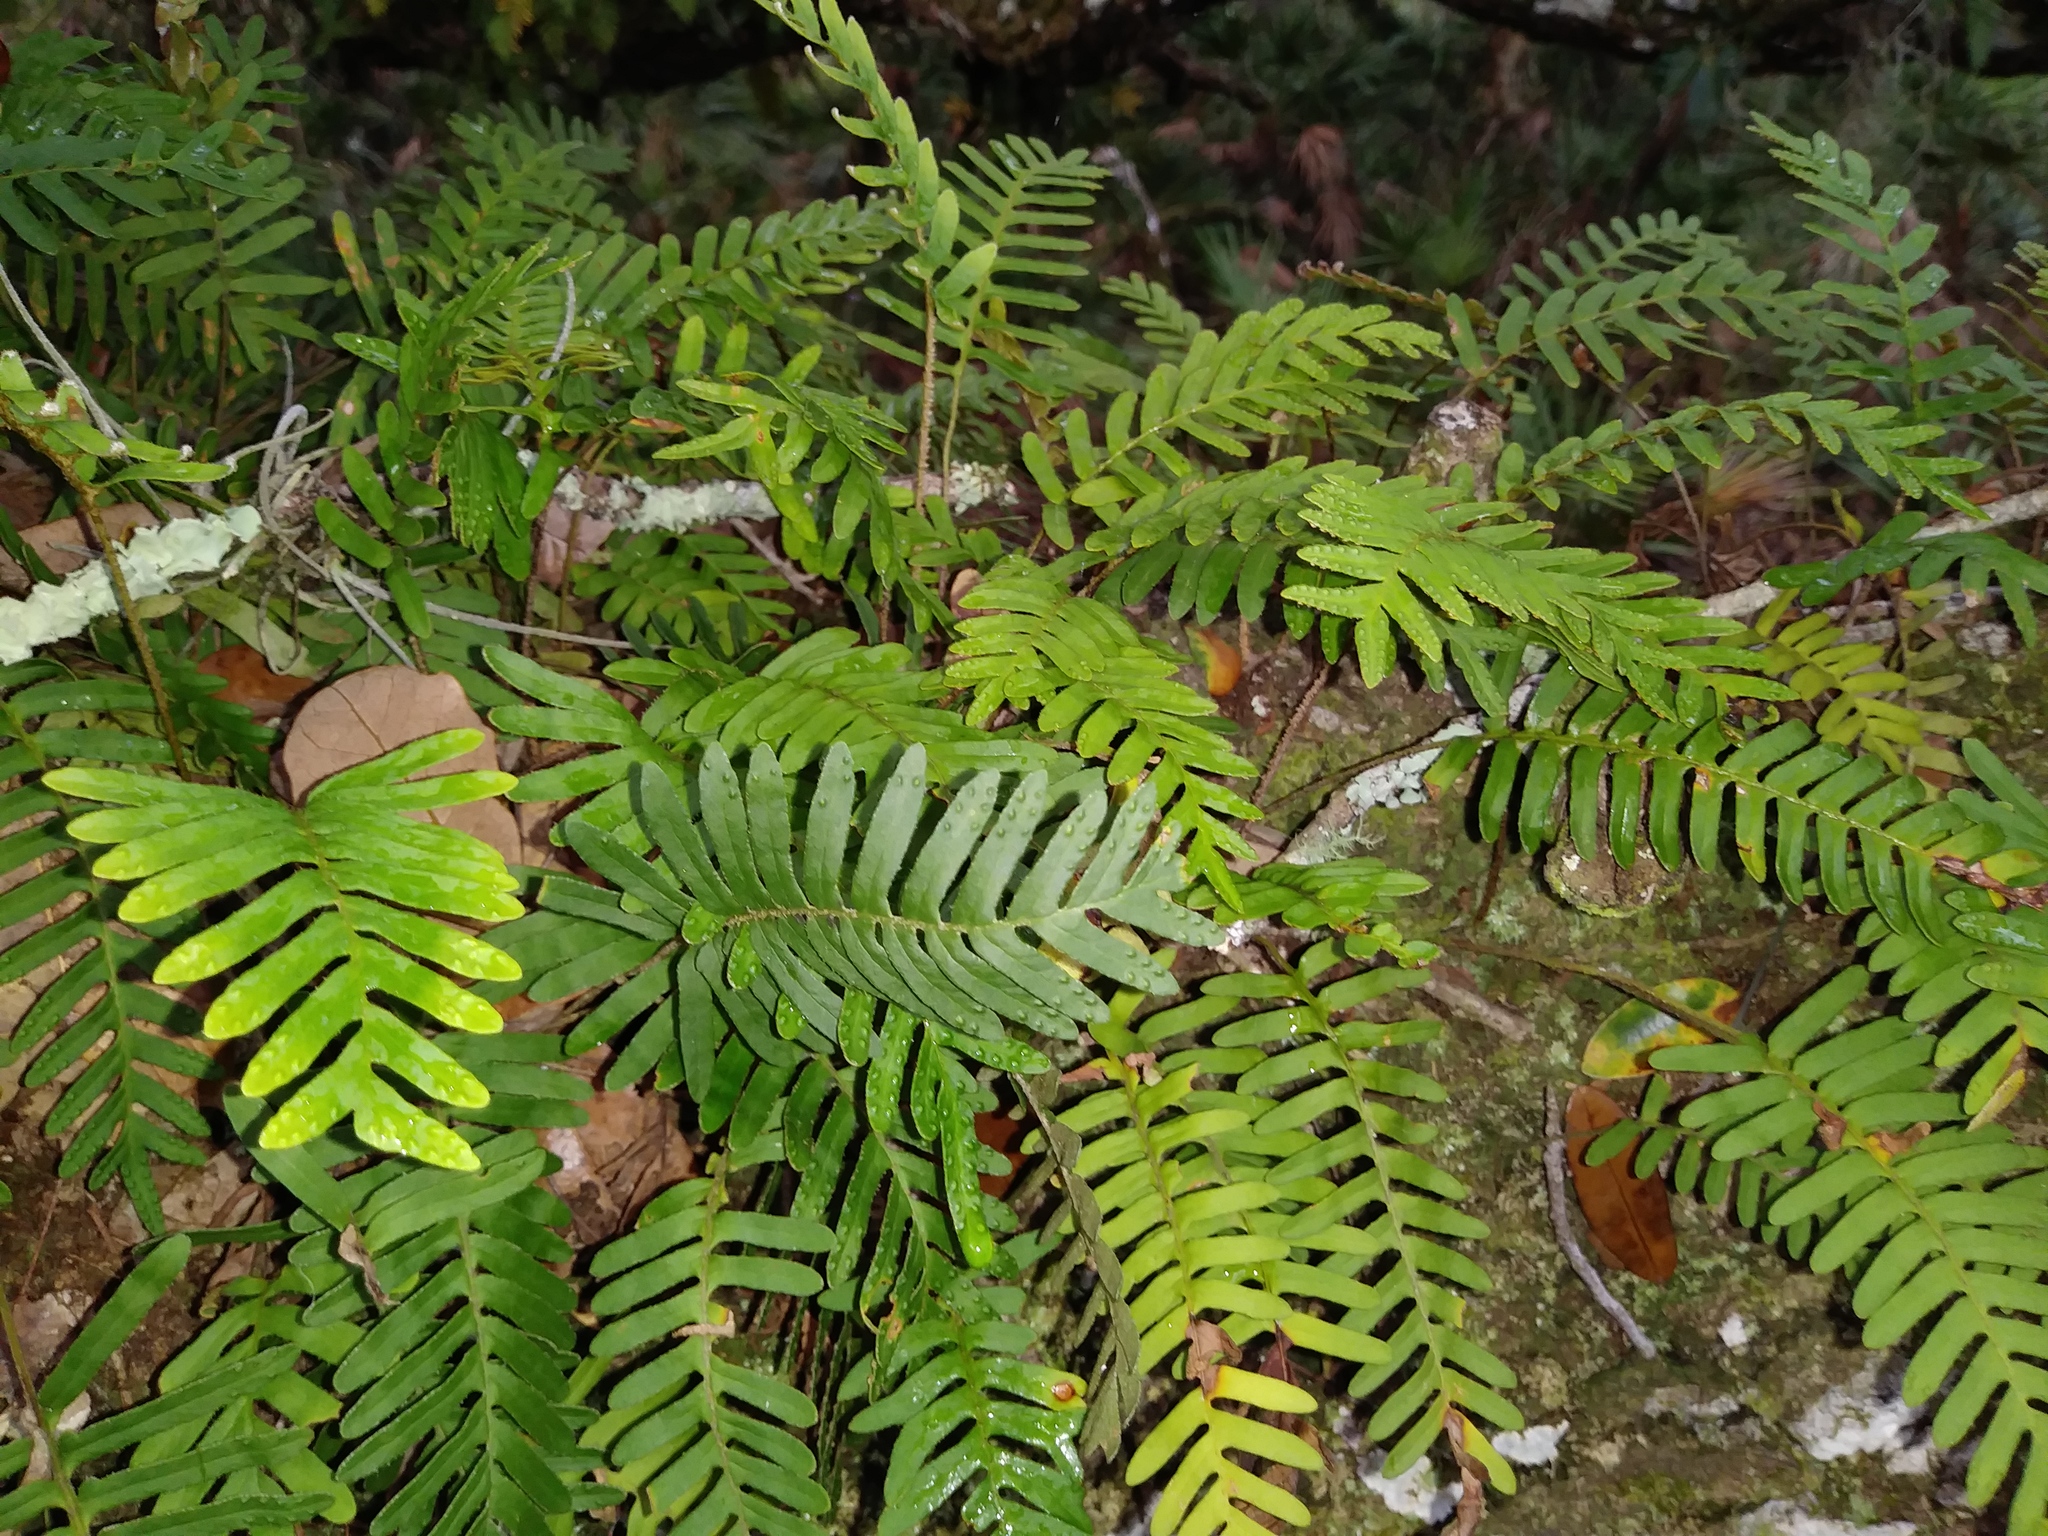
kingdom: Plantae
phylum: Tracheophyta
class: Polypodiopsida
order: Polypodiales
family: Polypodiaceae
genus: Pleopeltis
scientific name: Pleopeltis michauxiana
